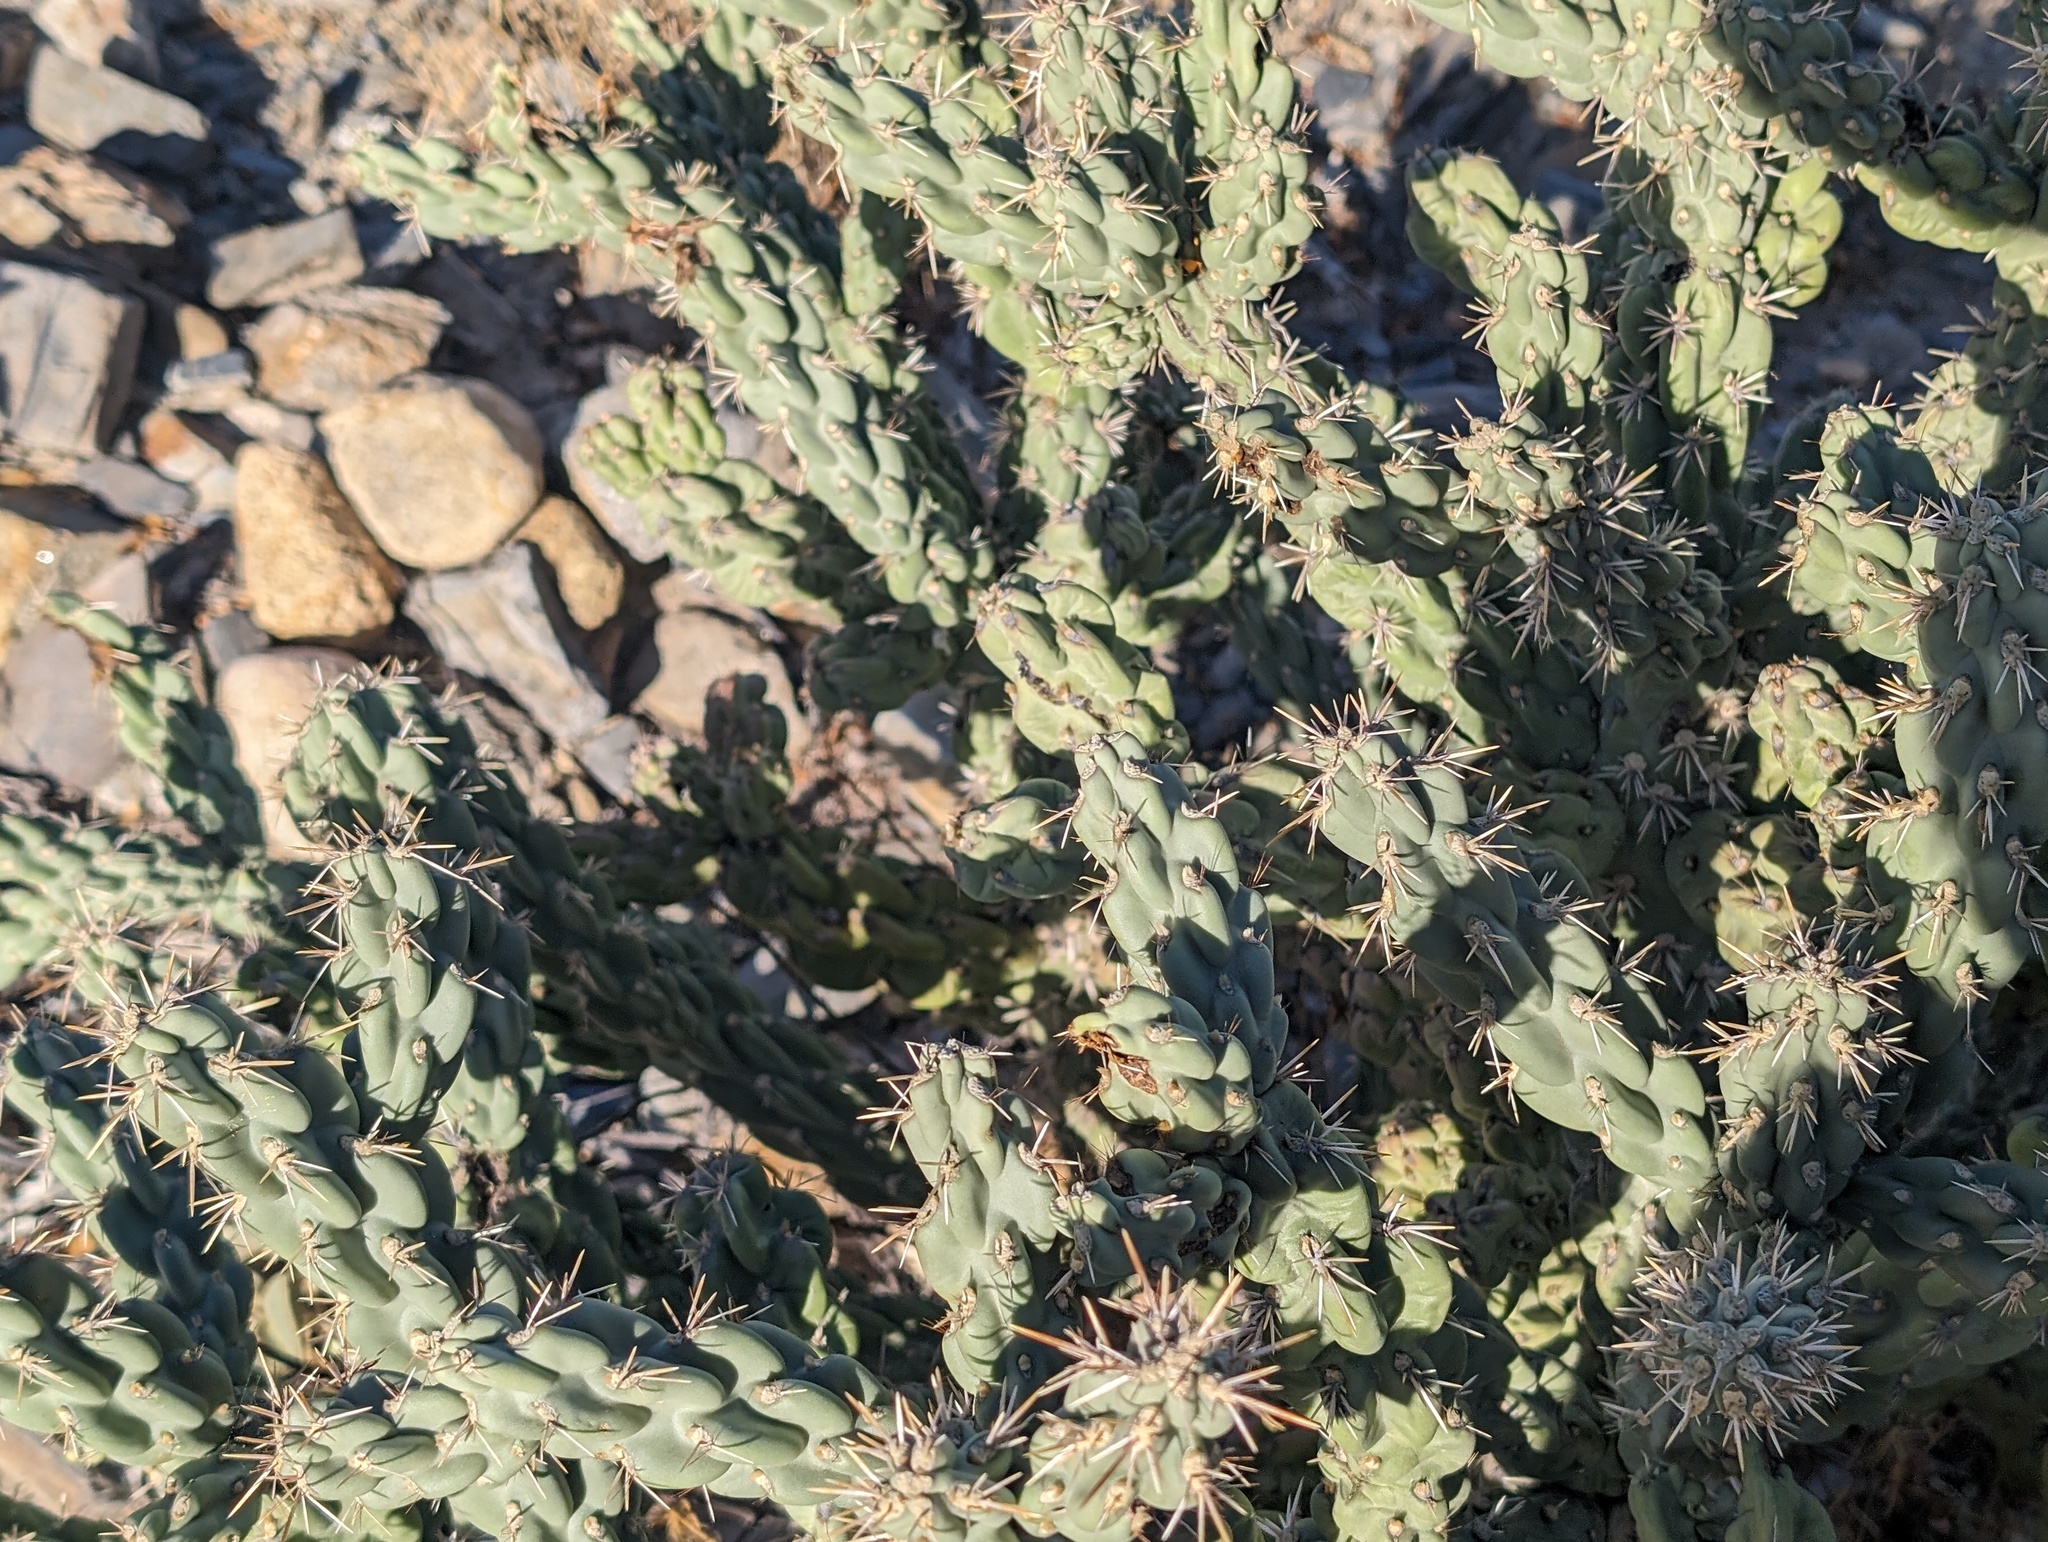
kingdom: Plantae
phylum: Tracheophyta
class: Magnoliopsida
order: Caryophyllales
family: Cactaceae
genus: Cylindropuntia
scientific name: Cylindropuntia cholla
